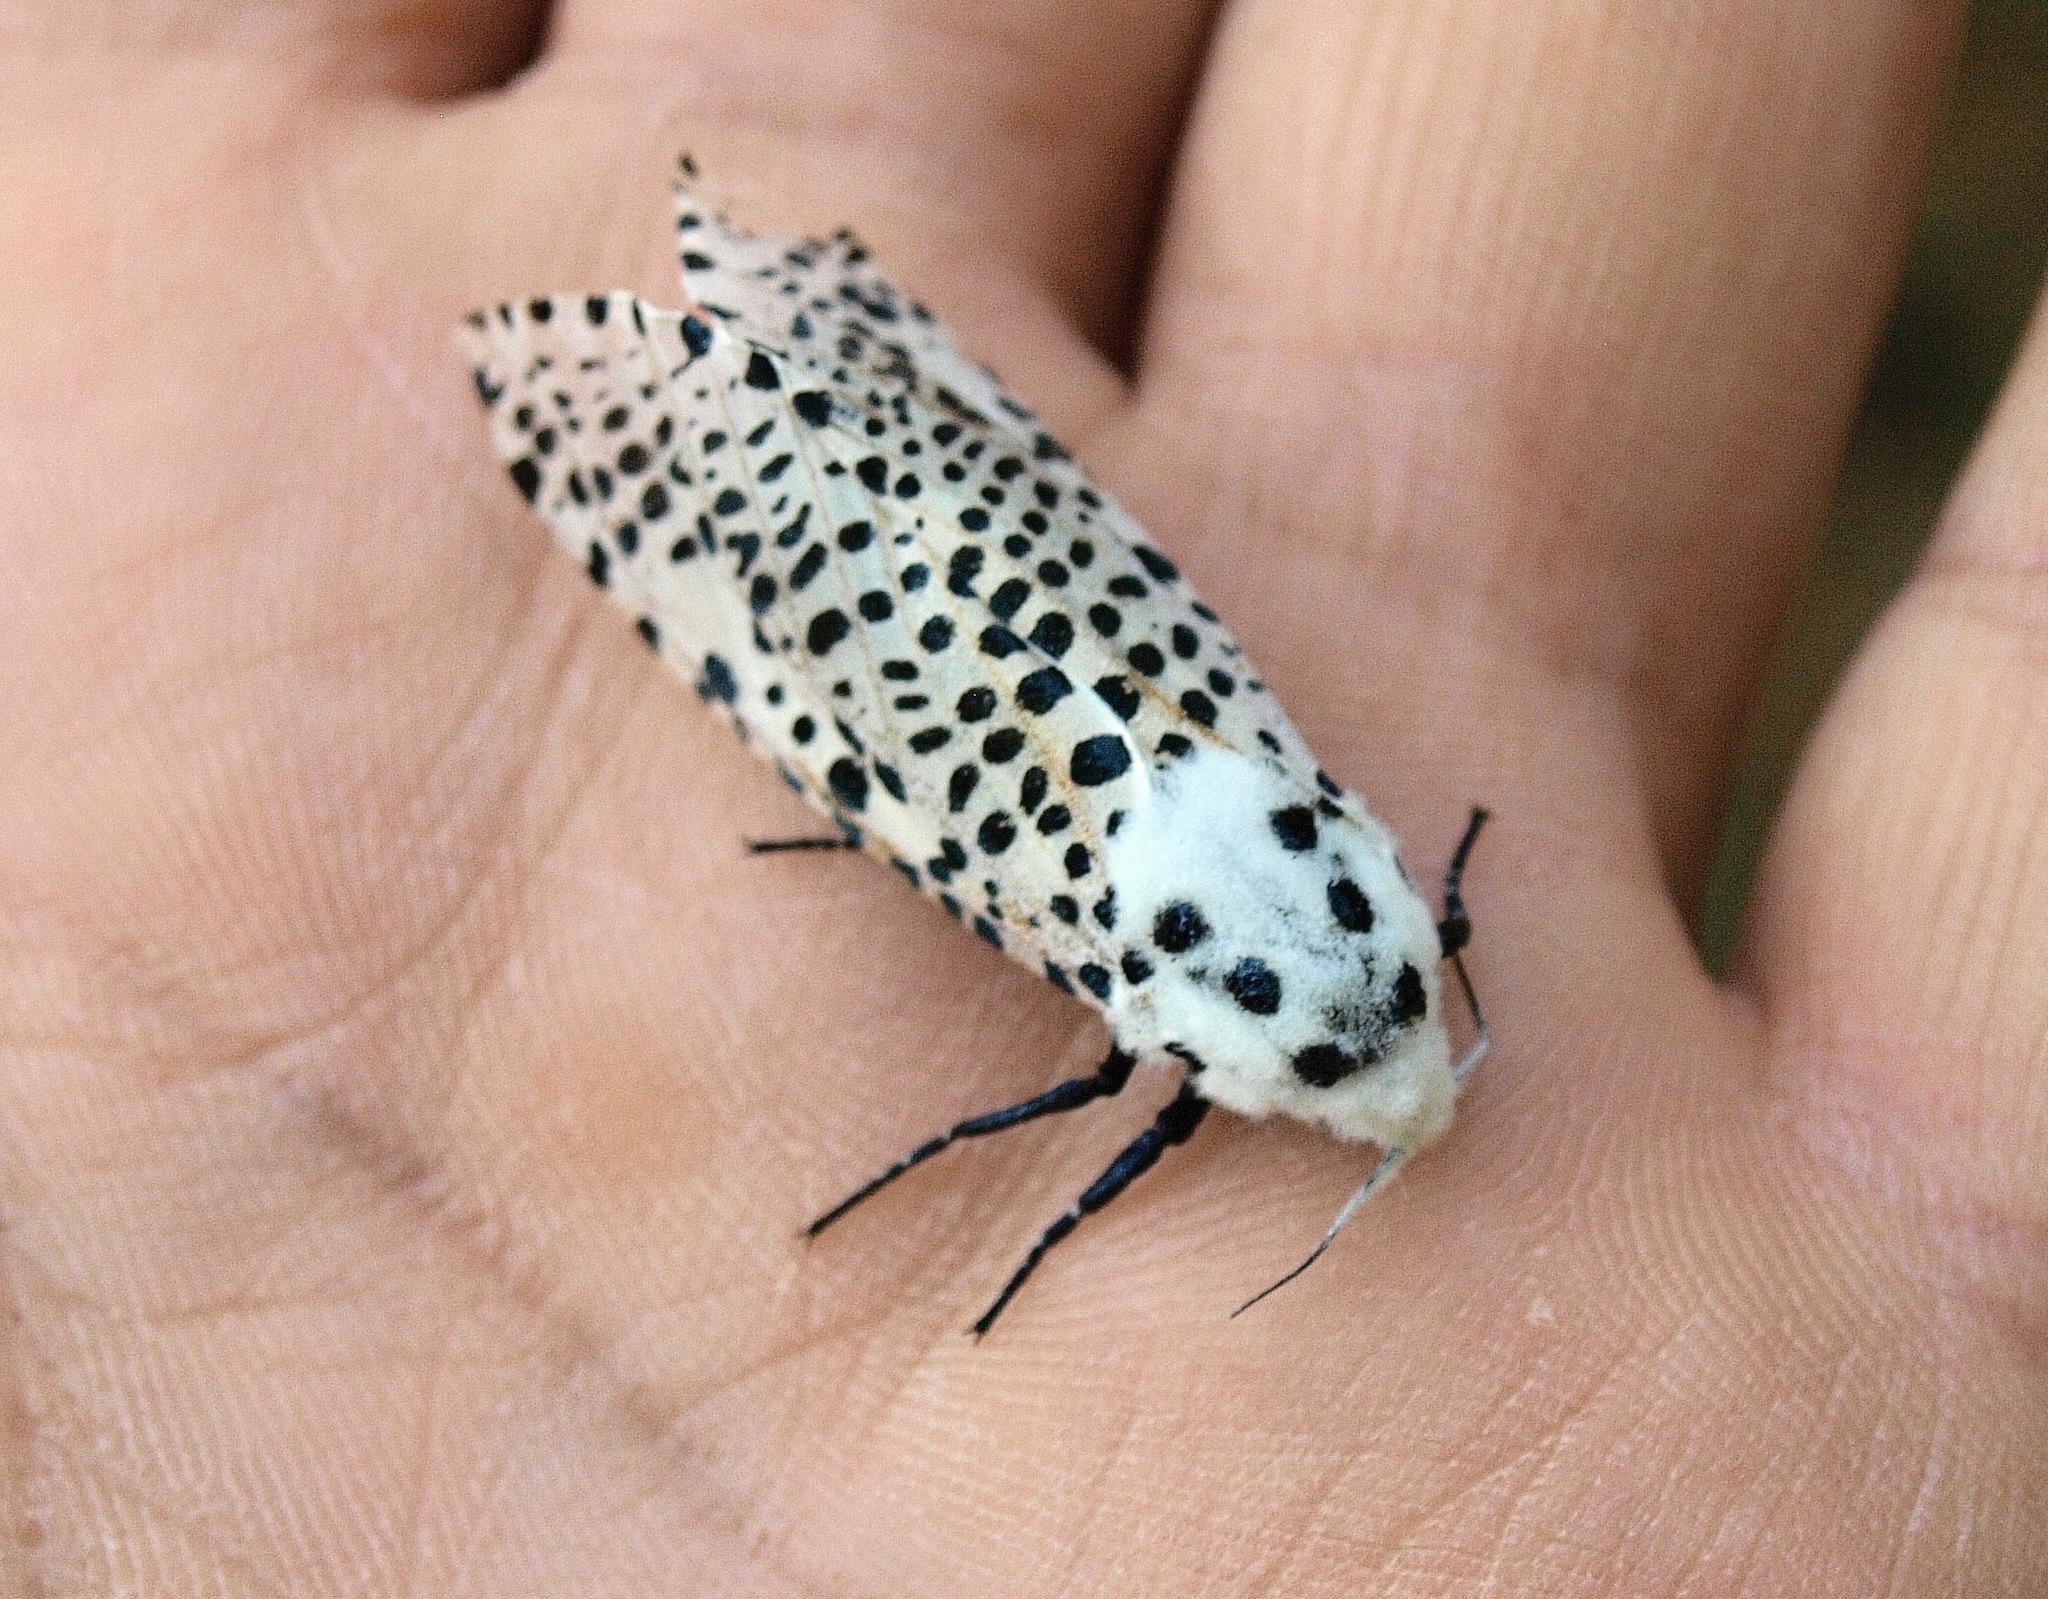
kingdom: Animalia
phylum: Arthropoda
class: Insecta
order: Lepidoptera
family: Cossidae
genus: Zeuzera
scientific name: Zeuzera pyrina
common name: Leopard moth
